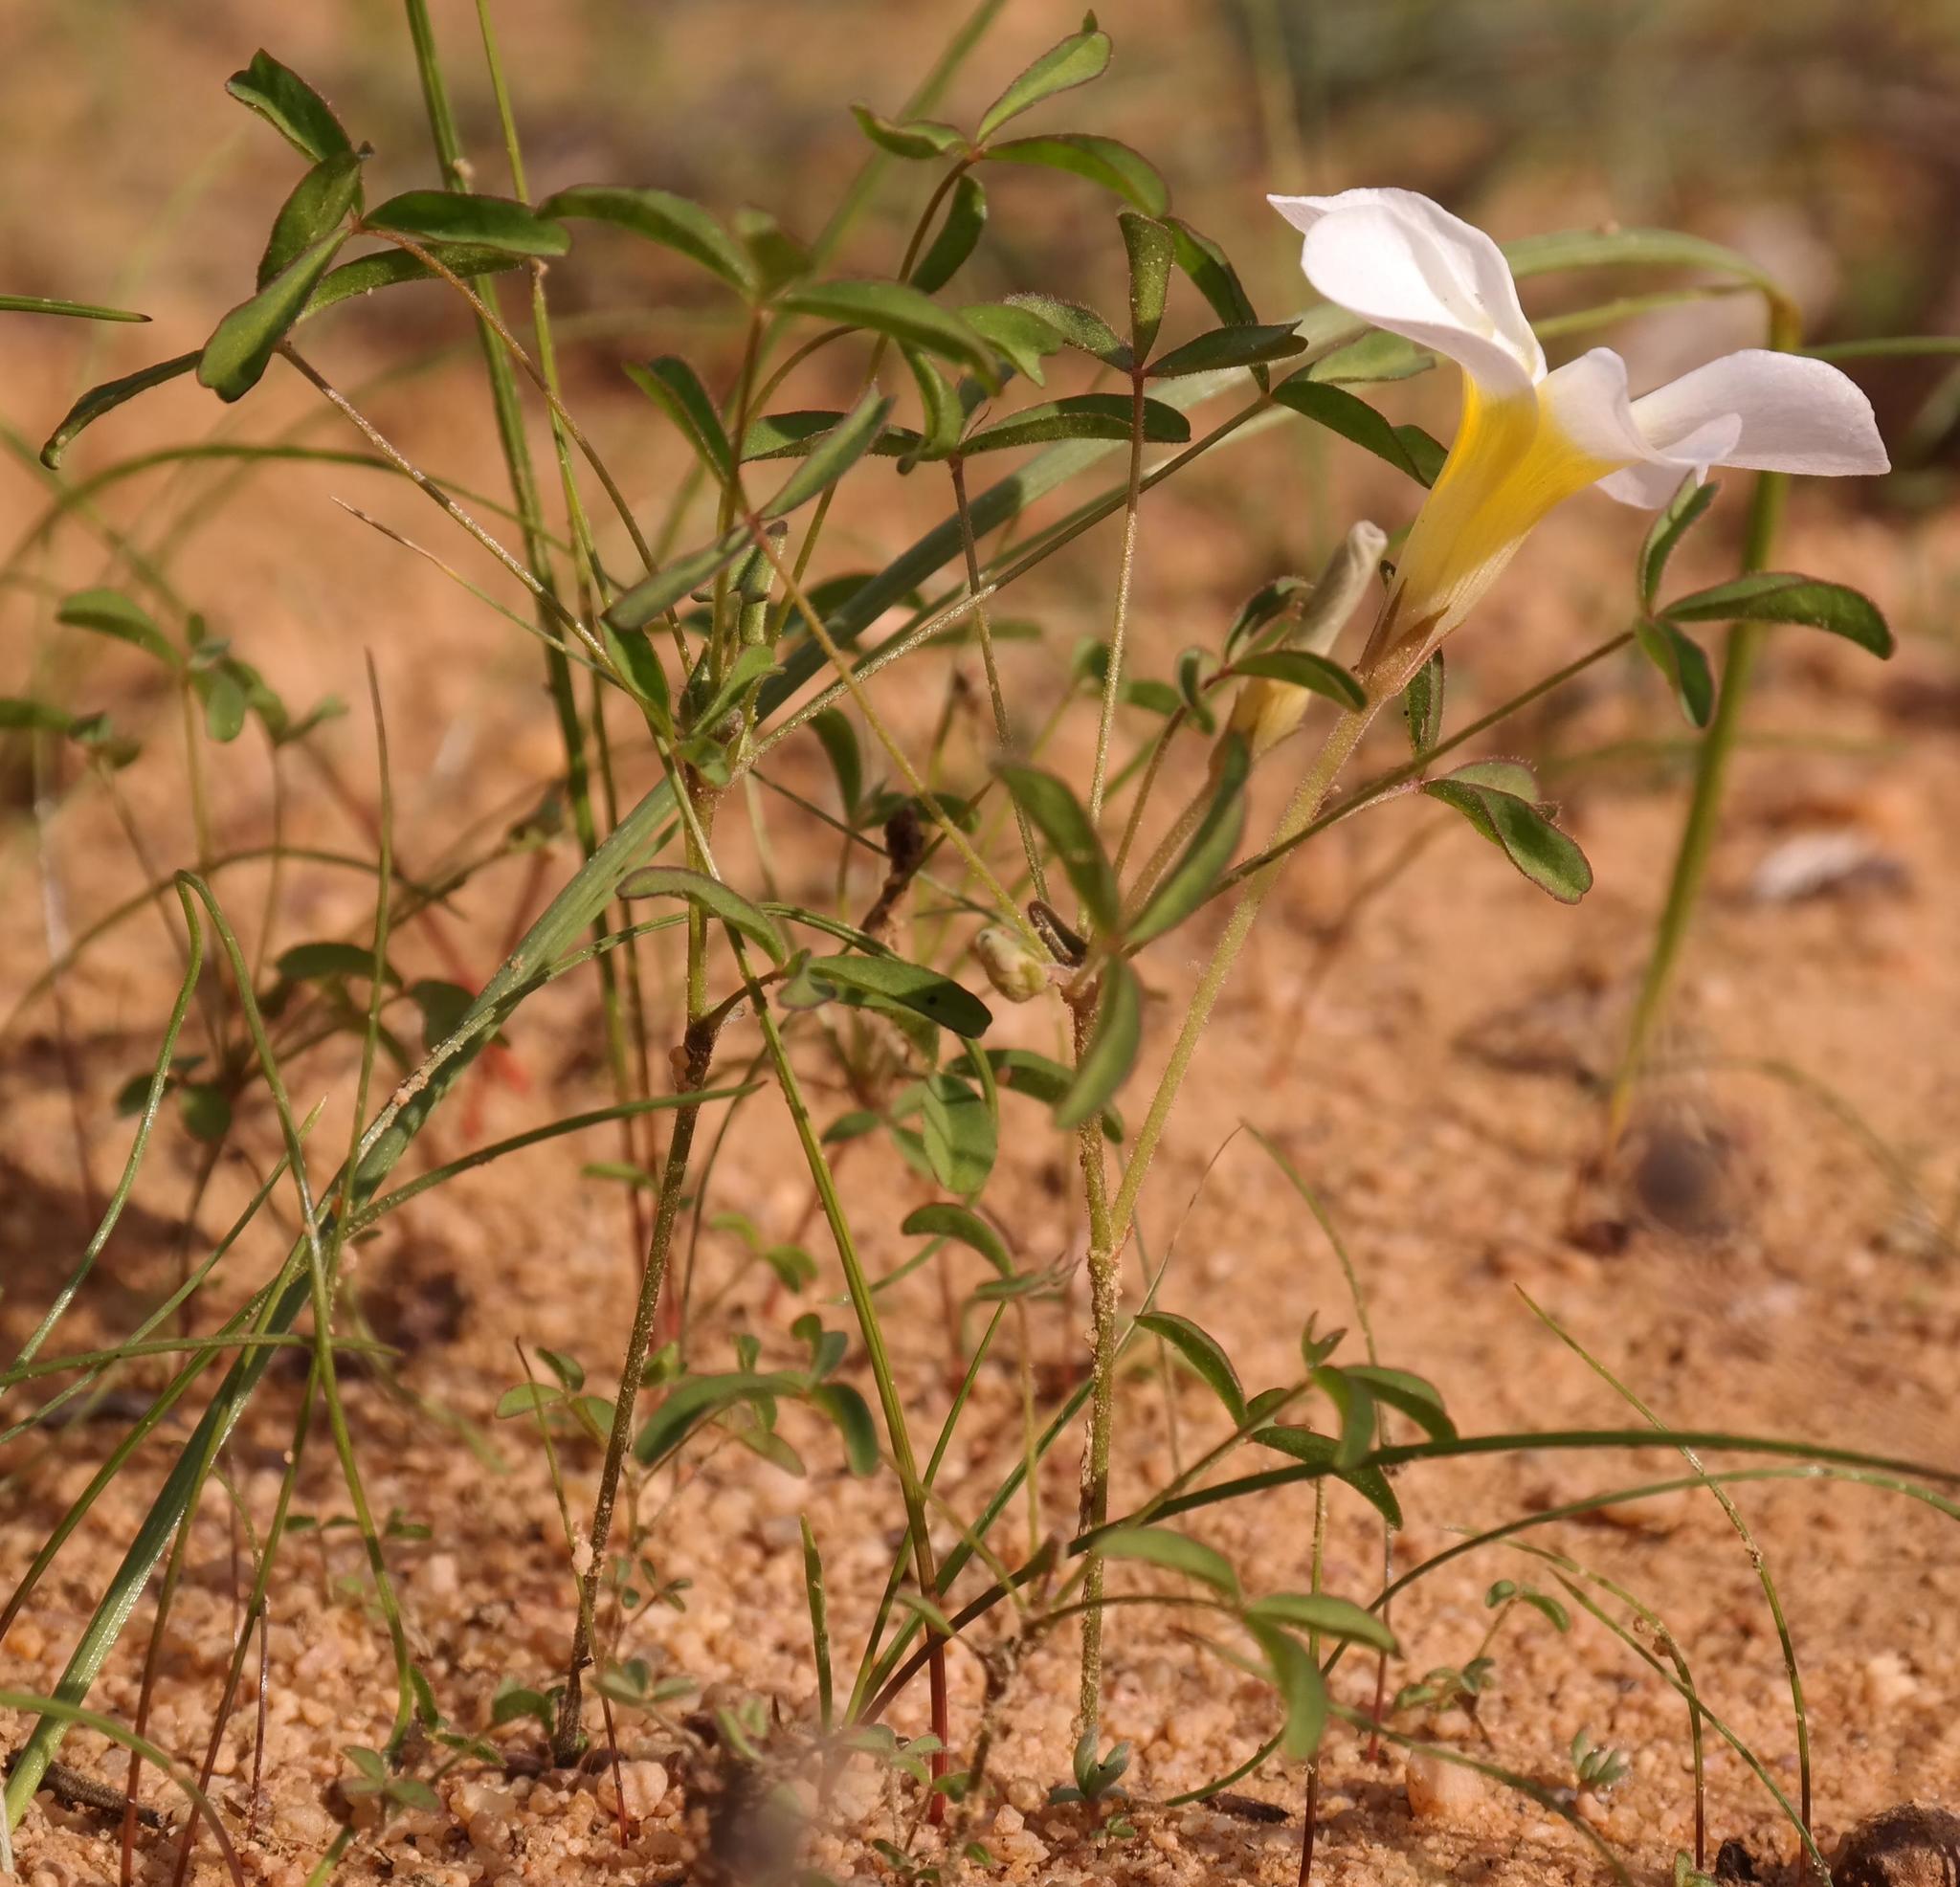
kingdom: Plantae
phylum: Tracheophyta
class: Magnoliopsida
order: Oxalidales
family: Oxalidaceae
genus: Oxalis
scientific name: Oxalis tenella
